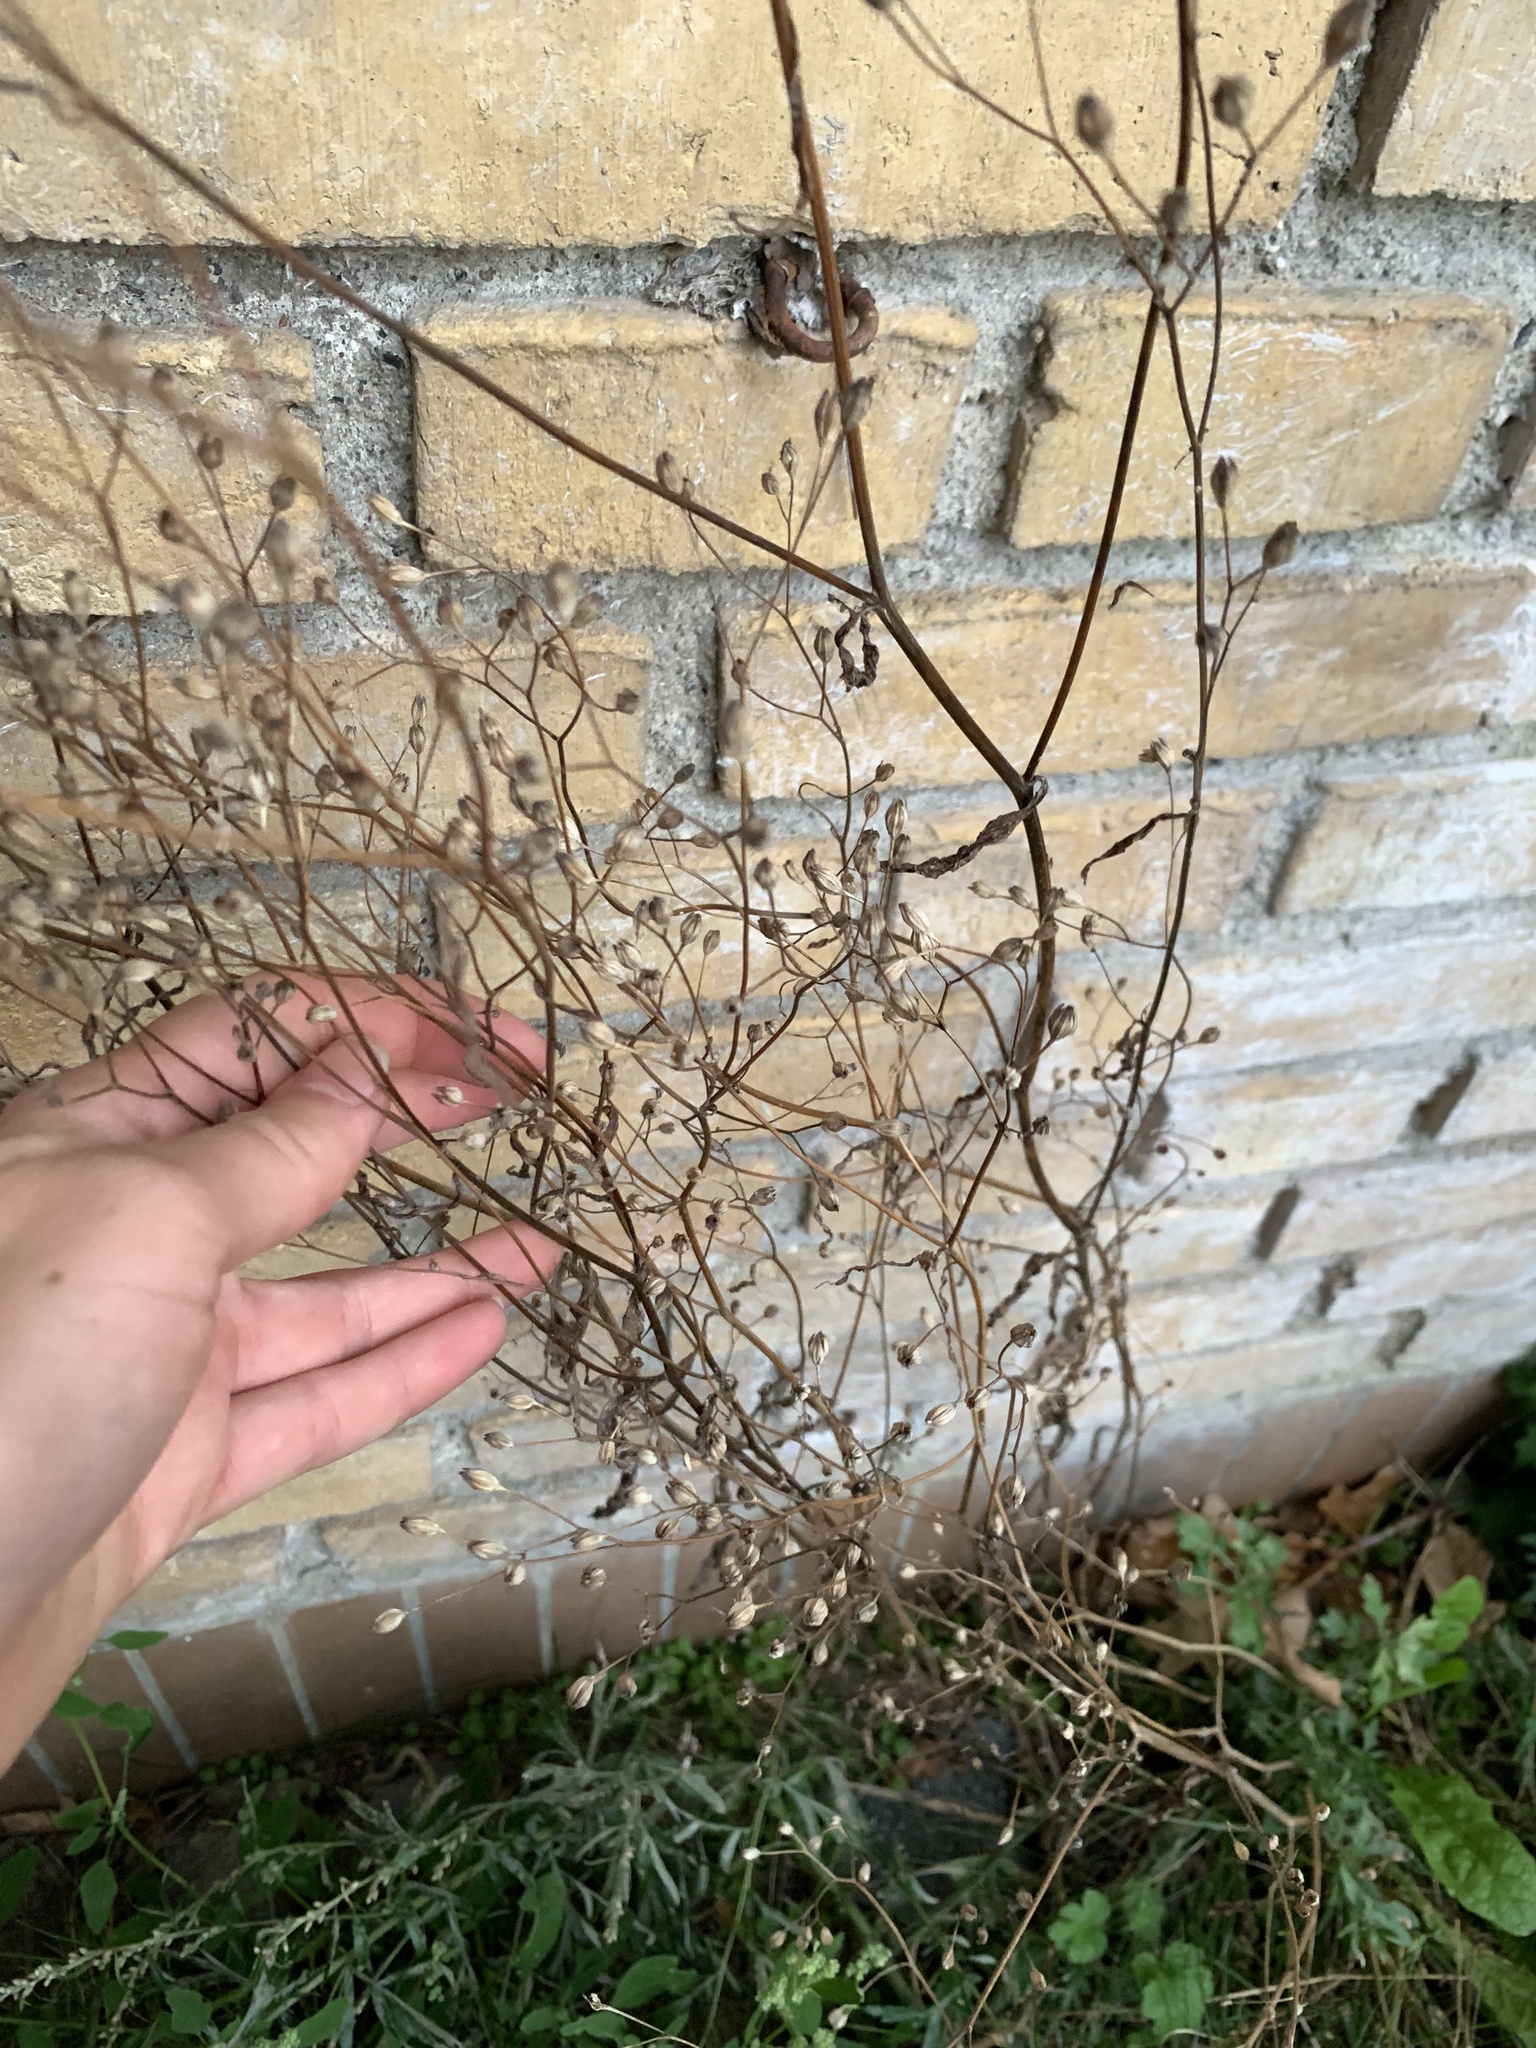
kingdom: Plantae
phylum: Tracheophyta
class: Magnoliopsida
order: Asterales
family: Asteraceae
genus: Lapsana
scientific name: Lapsana communis
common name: Nipplewort
